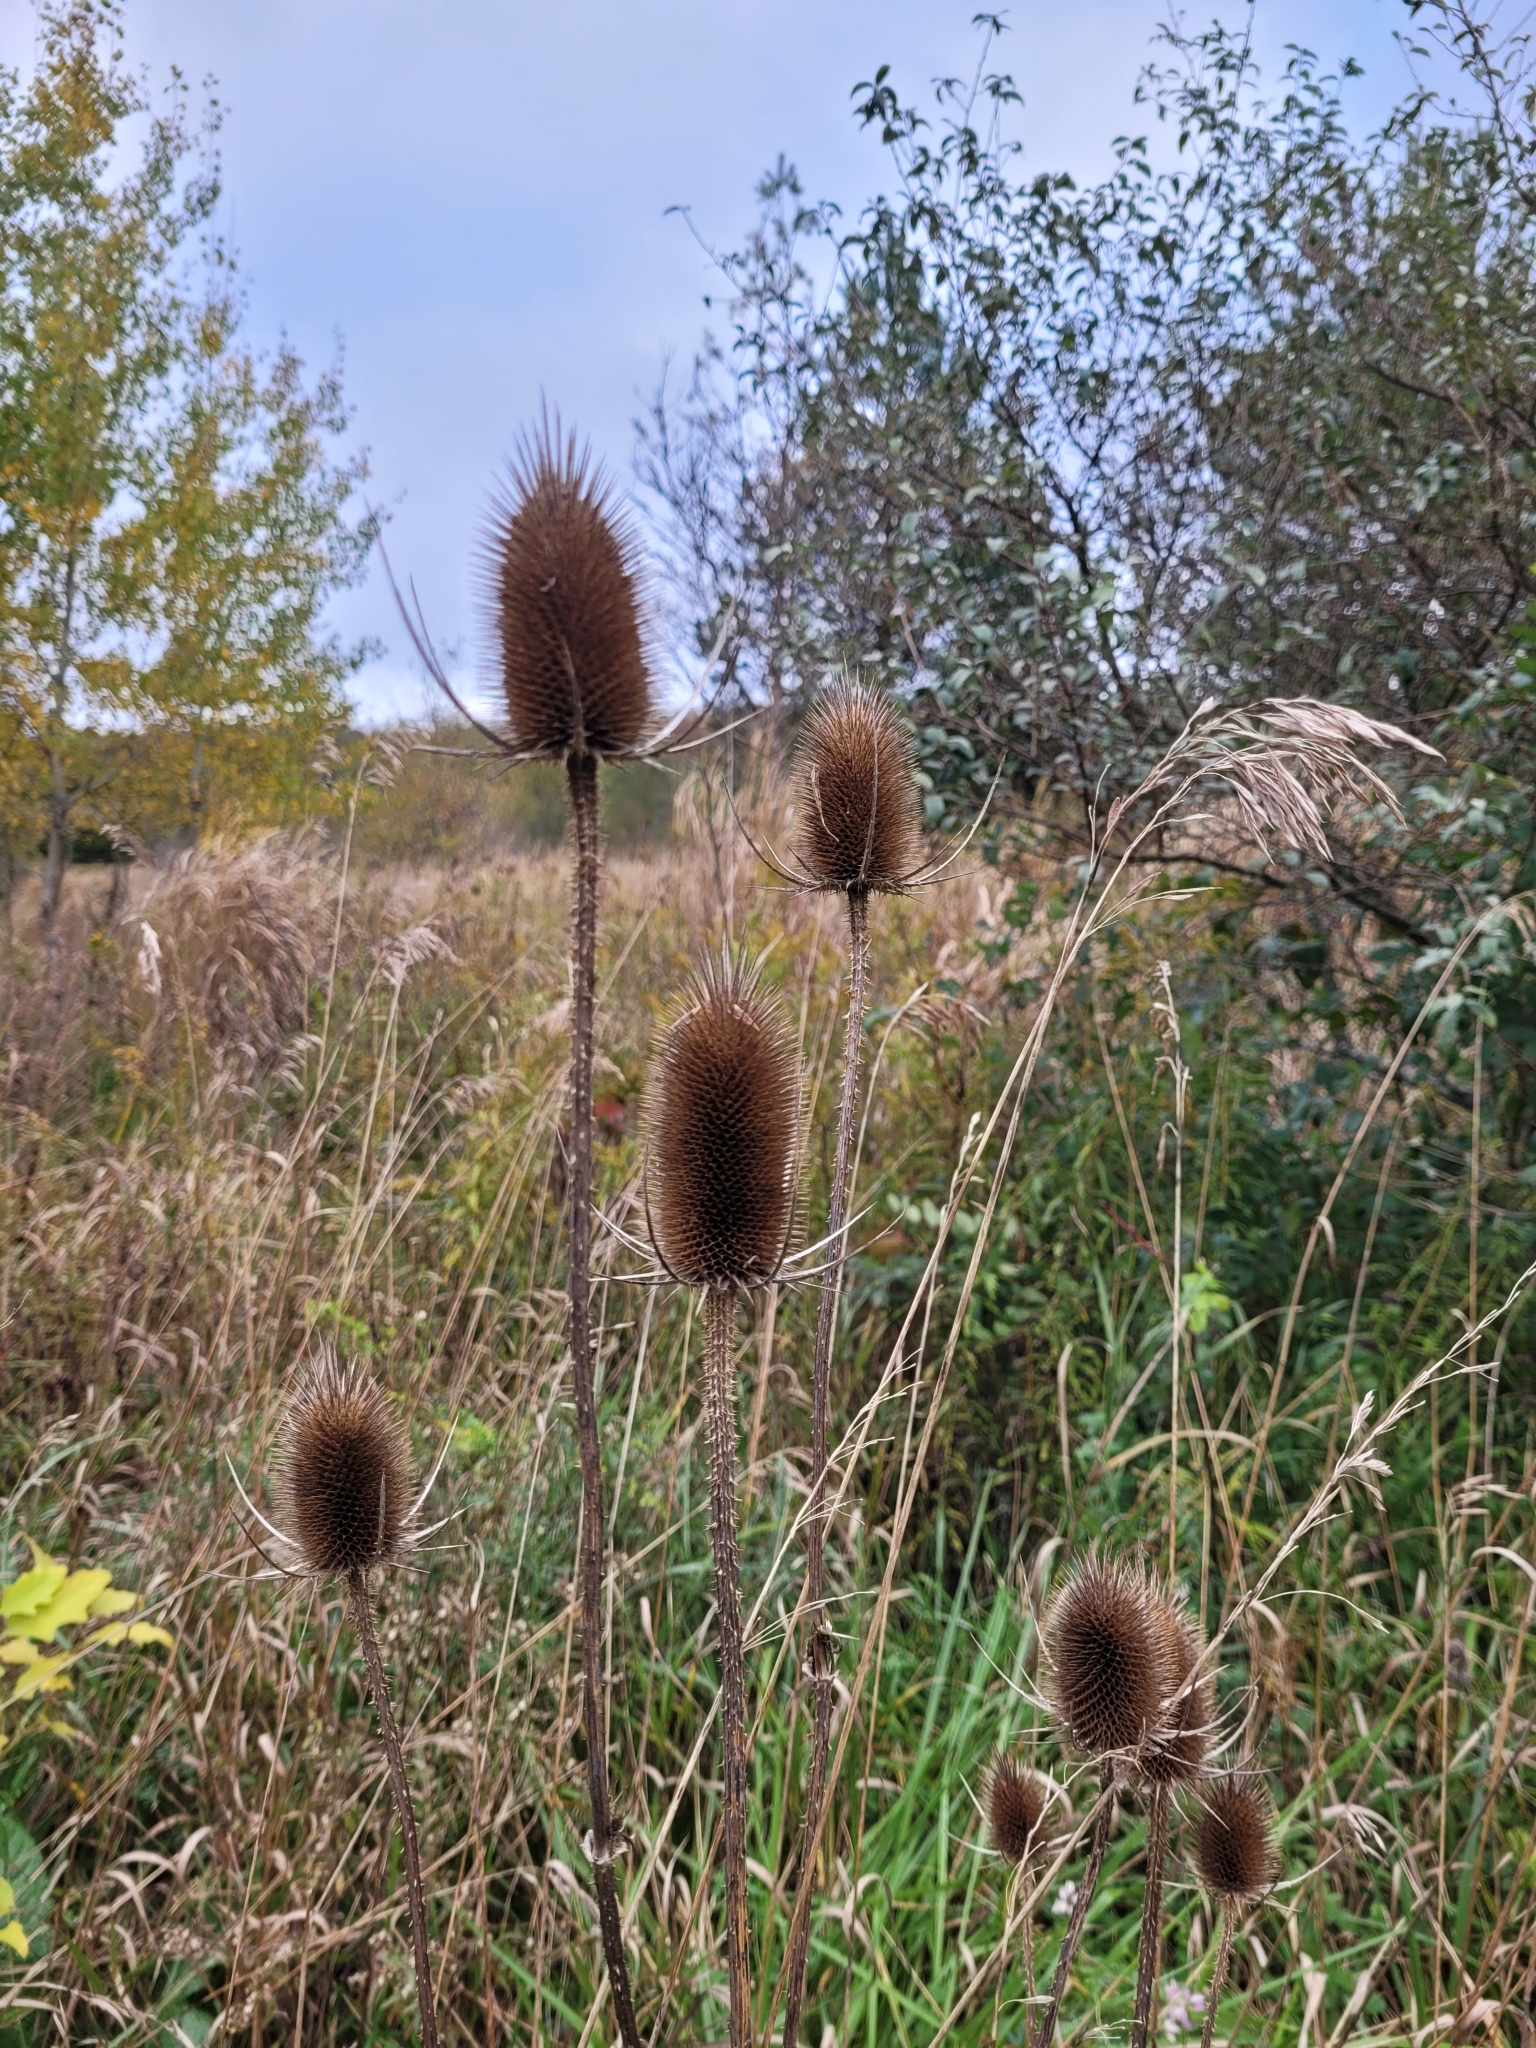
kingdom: Plantae
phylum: Tracheophyta
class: Magnoliopsida
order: Dipsacales
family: Caprifoliaceae
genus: Dipsacus
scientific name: Dipsacus fullonum
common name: Teasel
